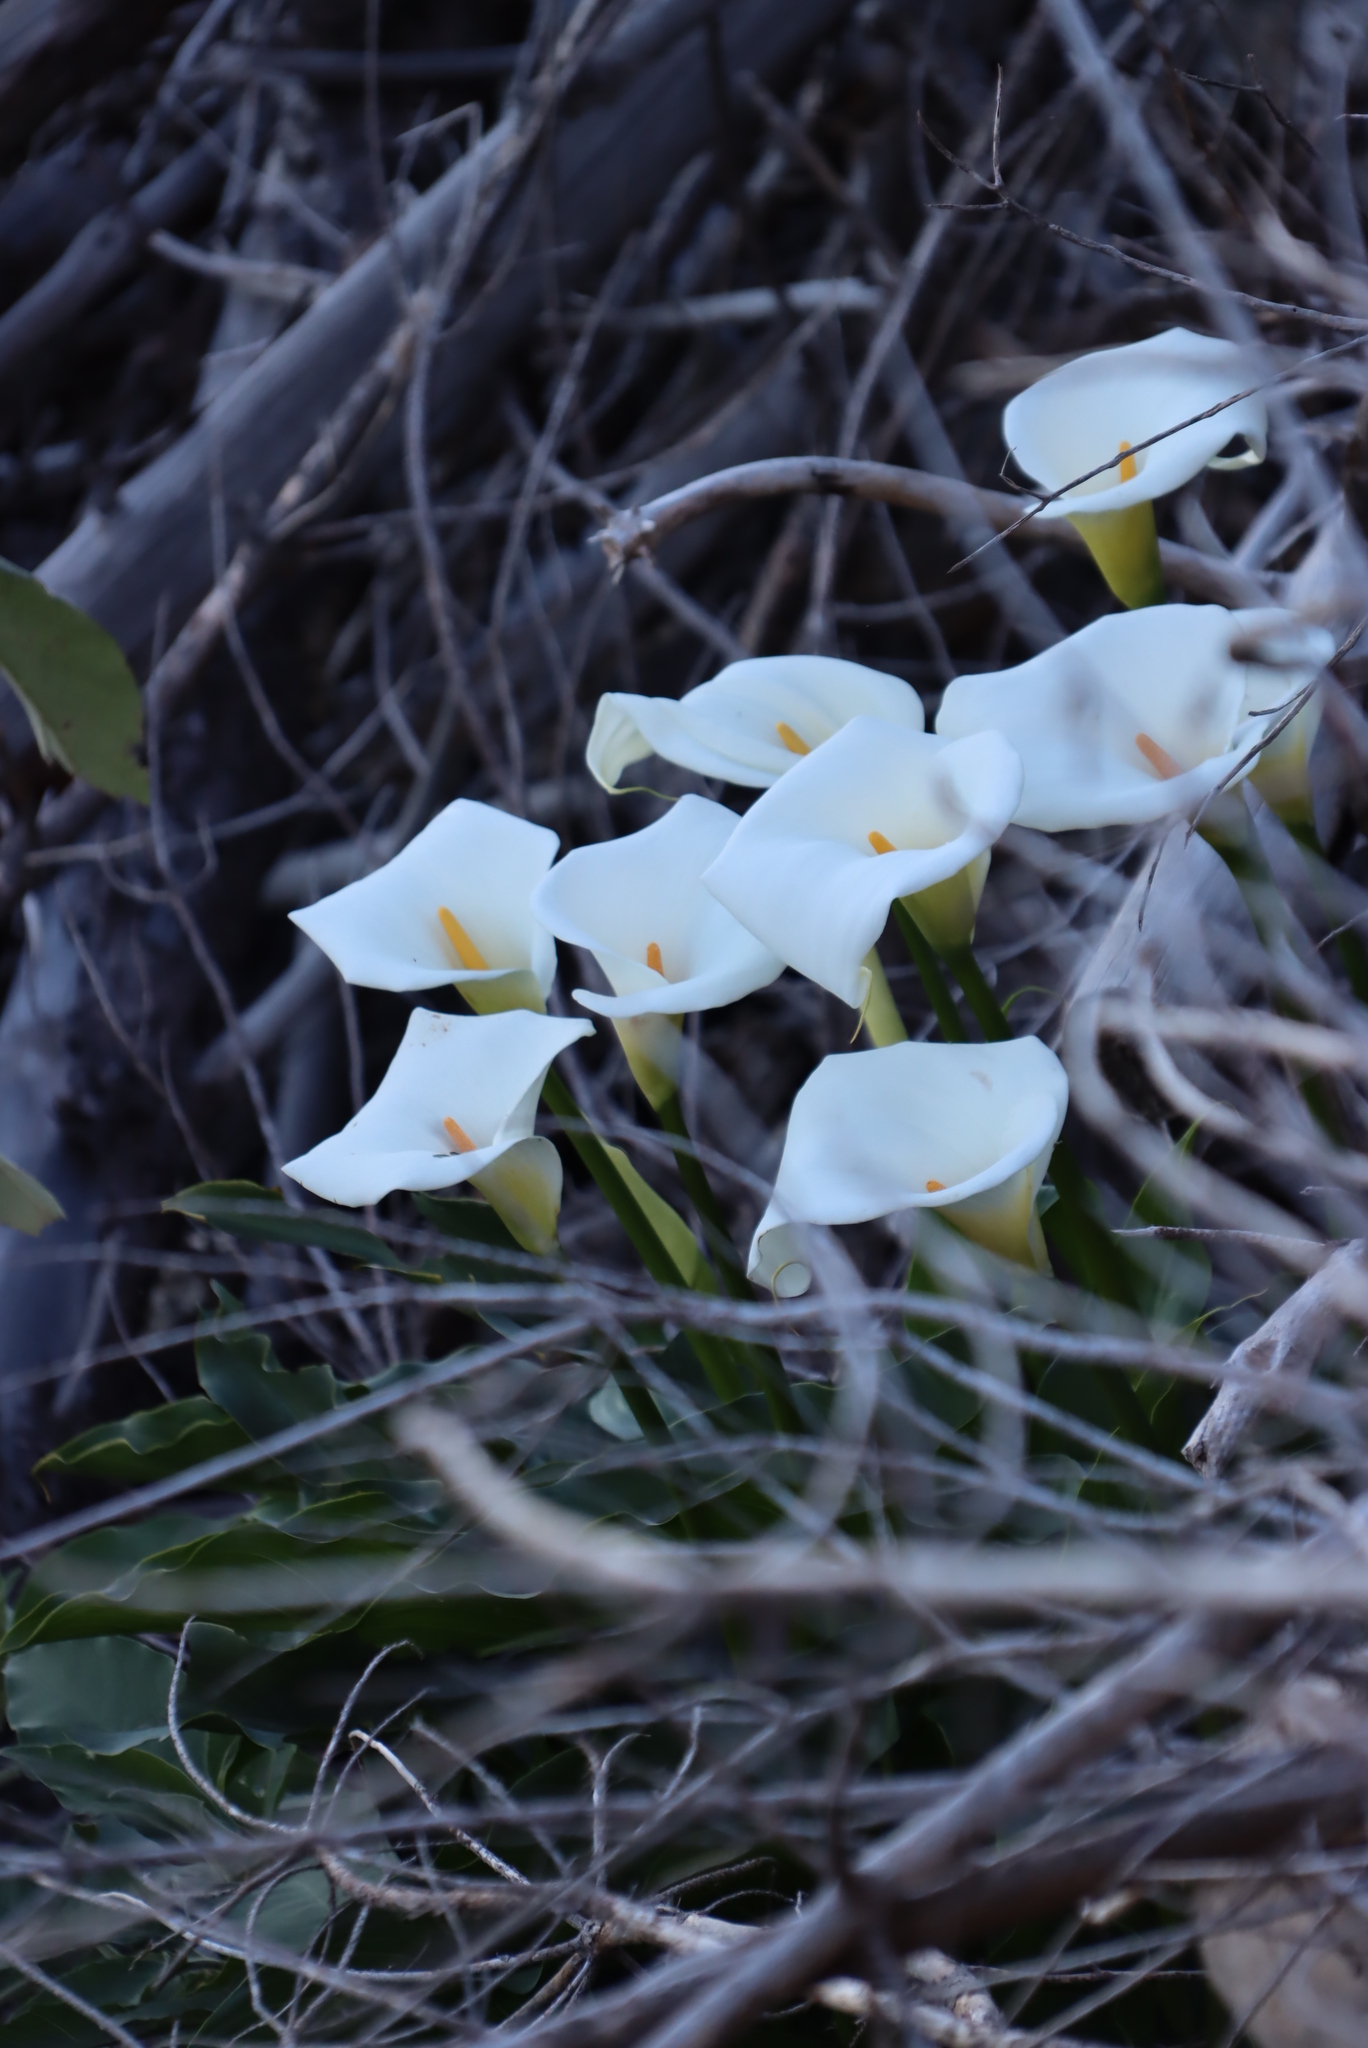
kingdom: Plantae
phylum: Tracheophyta
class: Liliopsida
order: Alismatales
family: Araceae
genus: Zantedeschia
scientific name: Zantedeschia aethiopica
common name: Altar-lily
